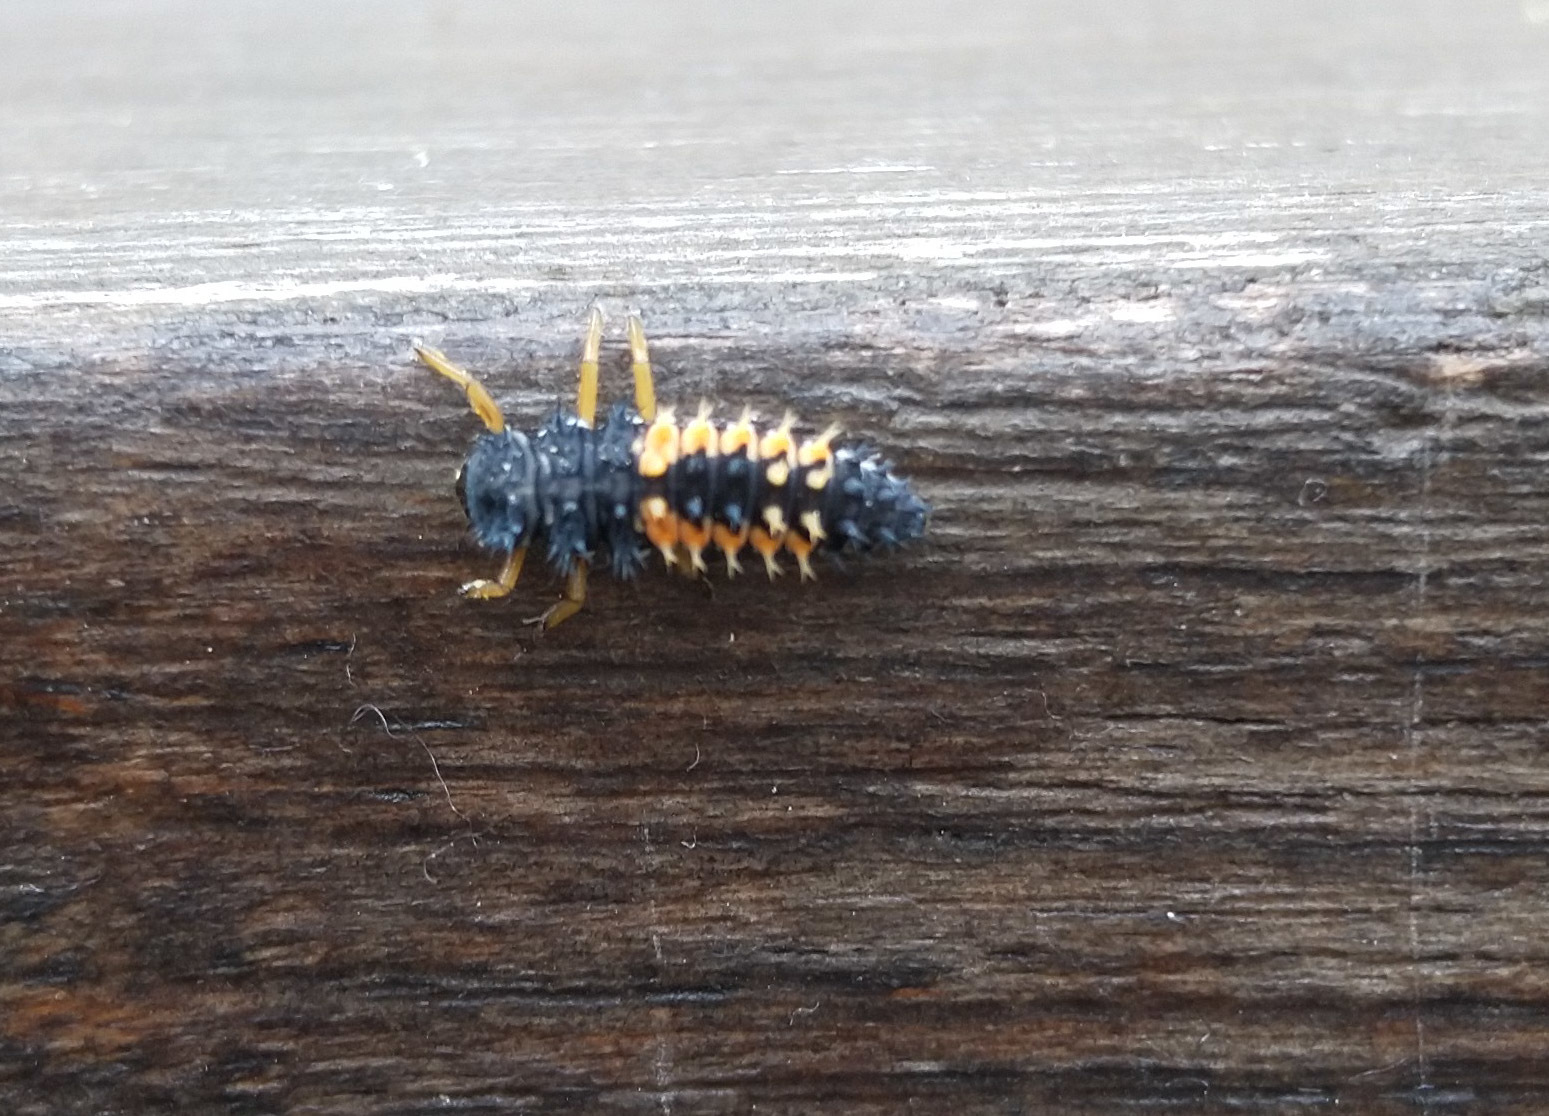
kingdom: Animalia
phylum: Arthropoda
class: Insecta
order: Coleoptera
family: Coccinellidae
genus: Harmonia
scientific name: Harmonia axyridis
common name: Harlequin ladybird
